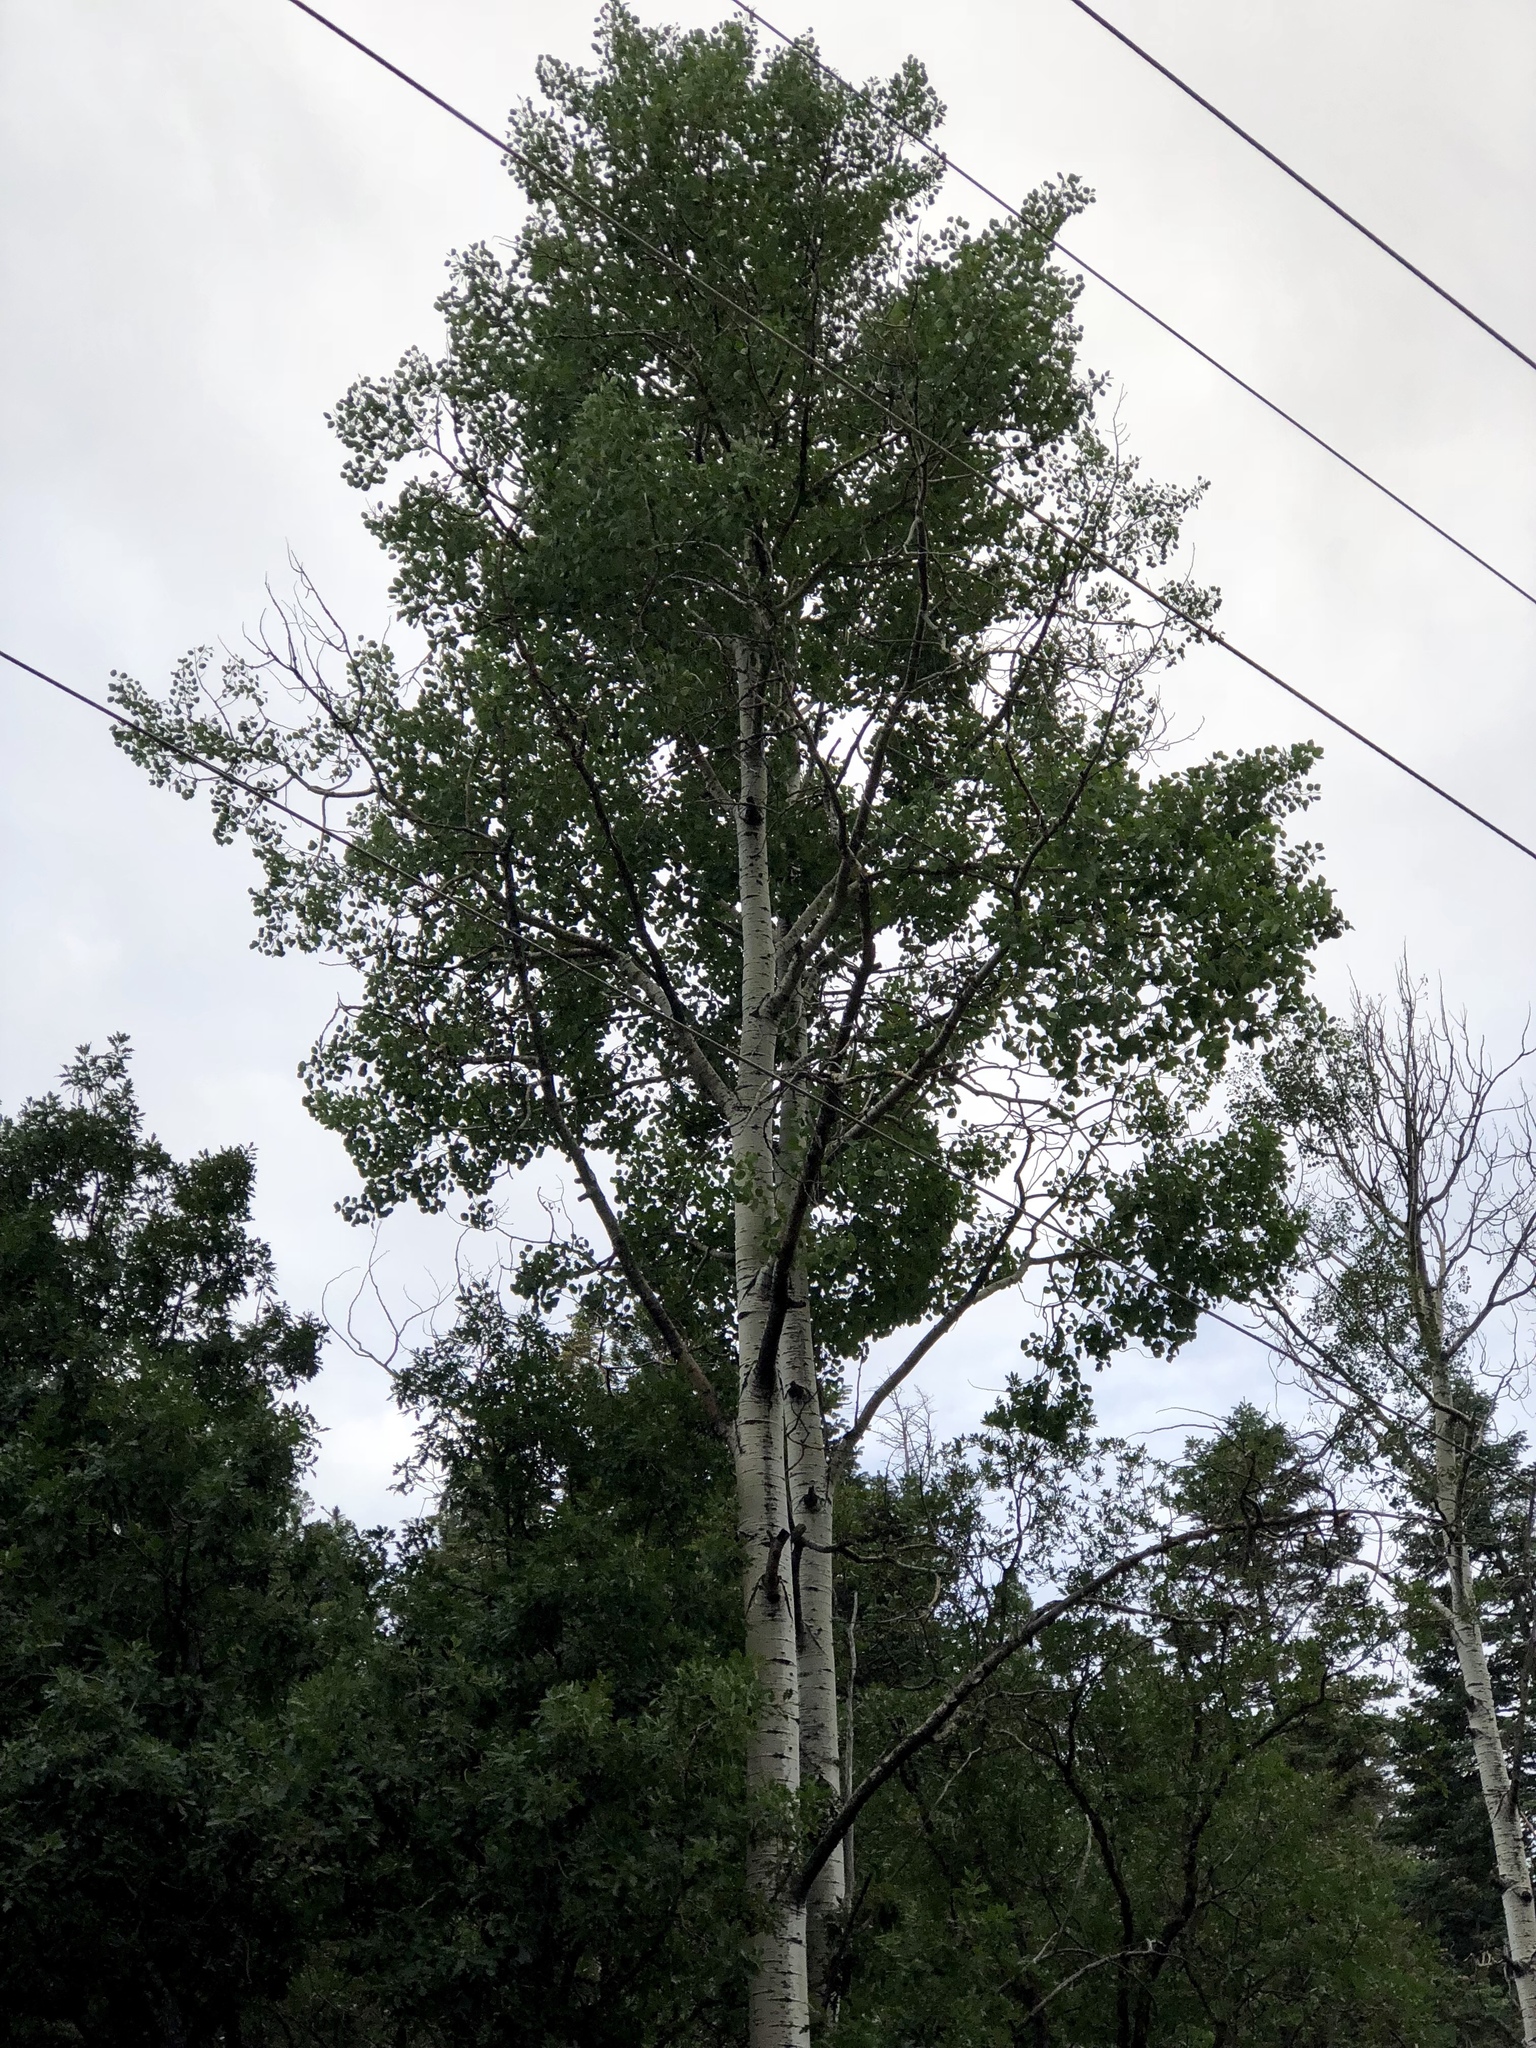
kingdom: Plantae
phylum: Tracheophyta
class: Magnoliopsida
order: Malpighiales
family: Salicaceae
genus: Populus
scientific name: Populus tremuloides
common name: Quaking aspen
